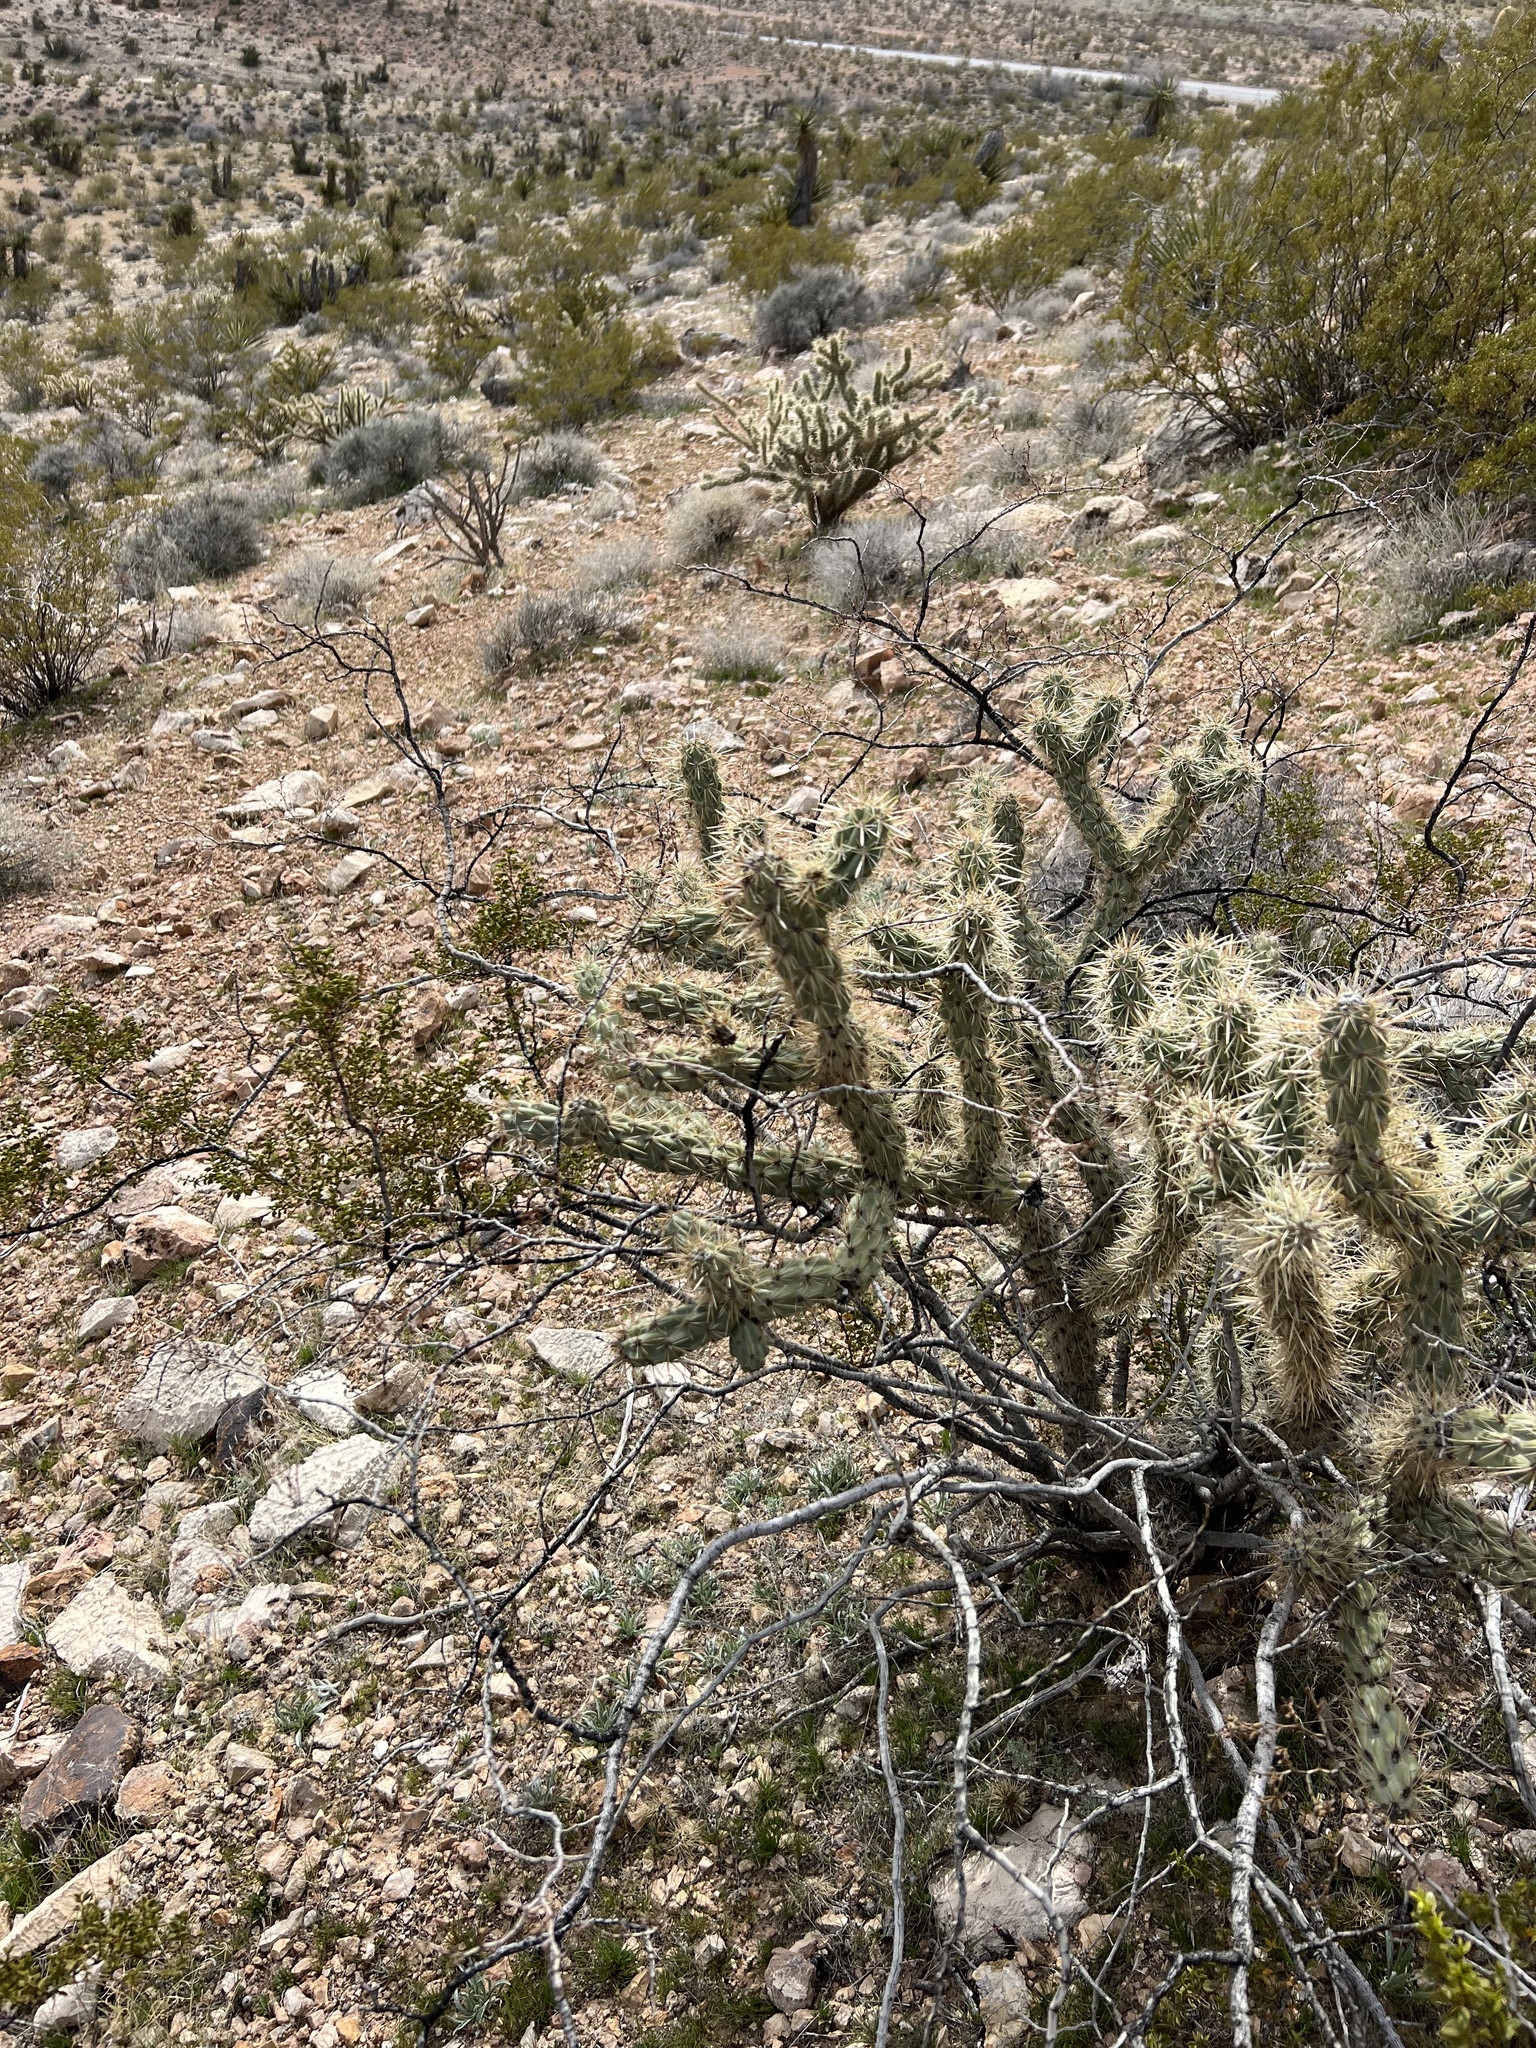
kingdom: Plantae
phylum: Tracheophyta
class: Magnoliopsida
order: Caryophyllales
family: Cactaceae
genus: Cylindropuntia
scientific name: Cylindropuntia acanthocarpa
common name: Buckhorn cholla
